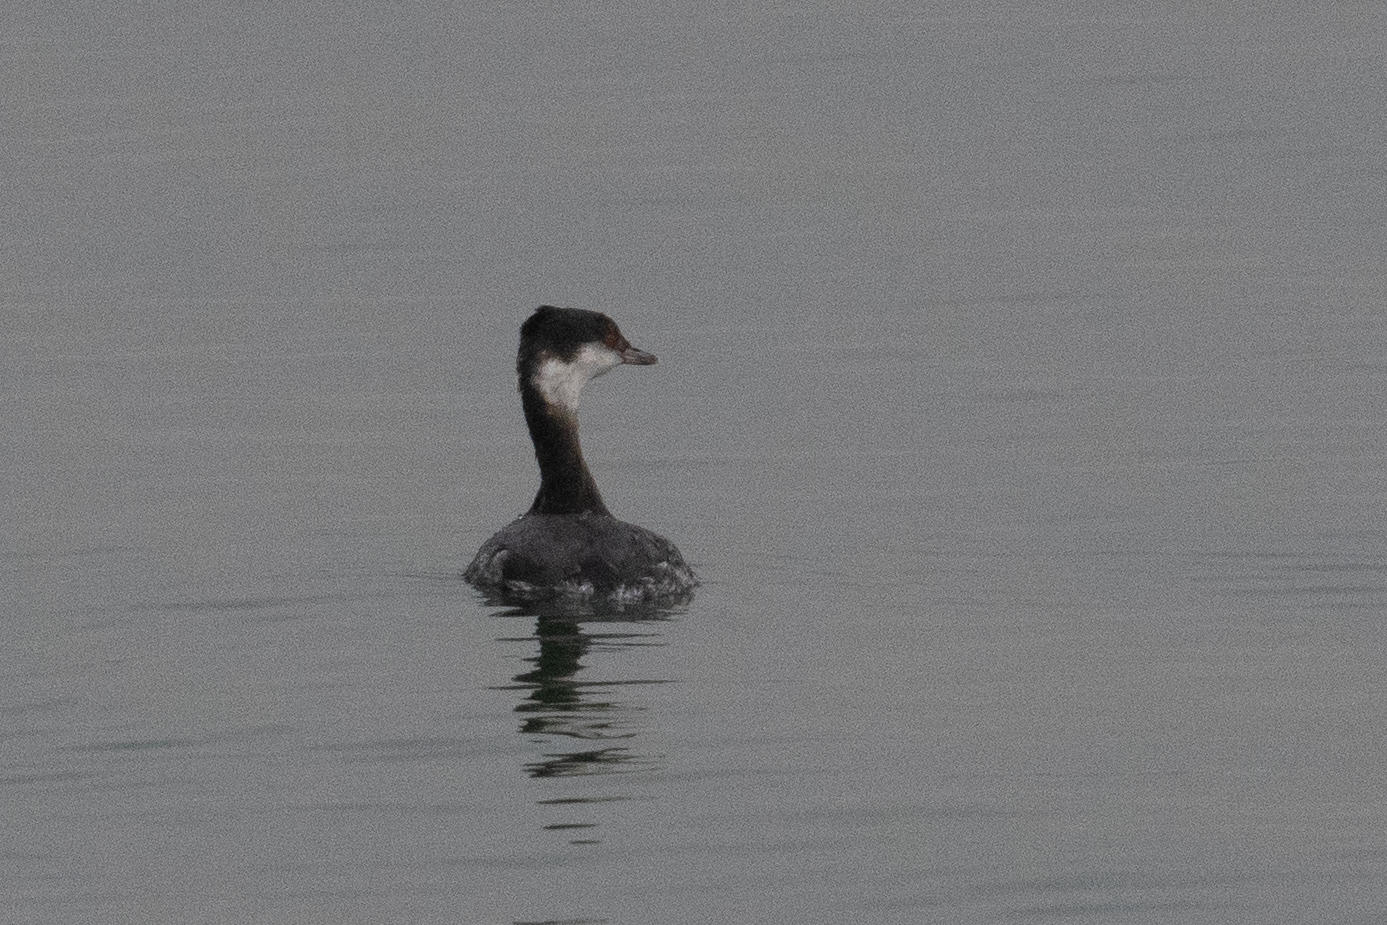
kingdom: Animalia
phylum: Chordata
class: Aves
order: Podicipediformes
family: Podicipedidae
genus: Podiceps
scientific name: Podiceps auritus
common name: Horned grebe
